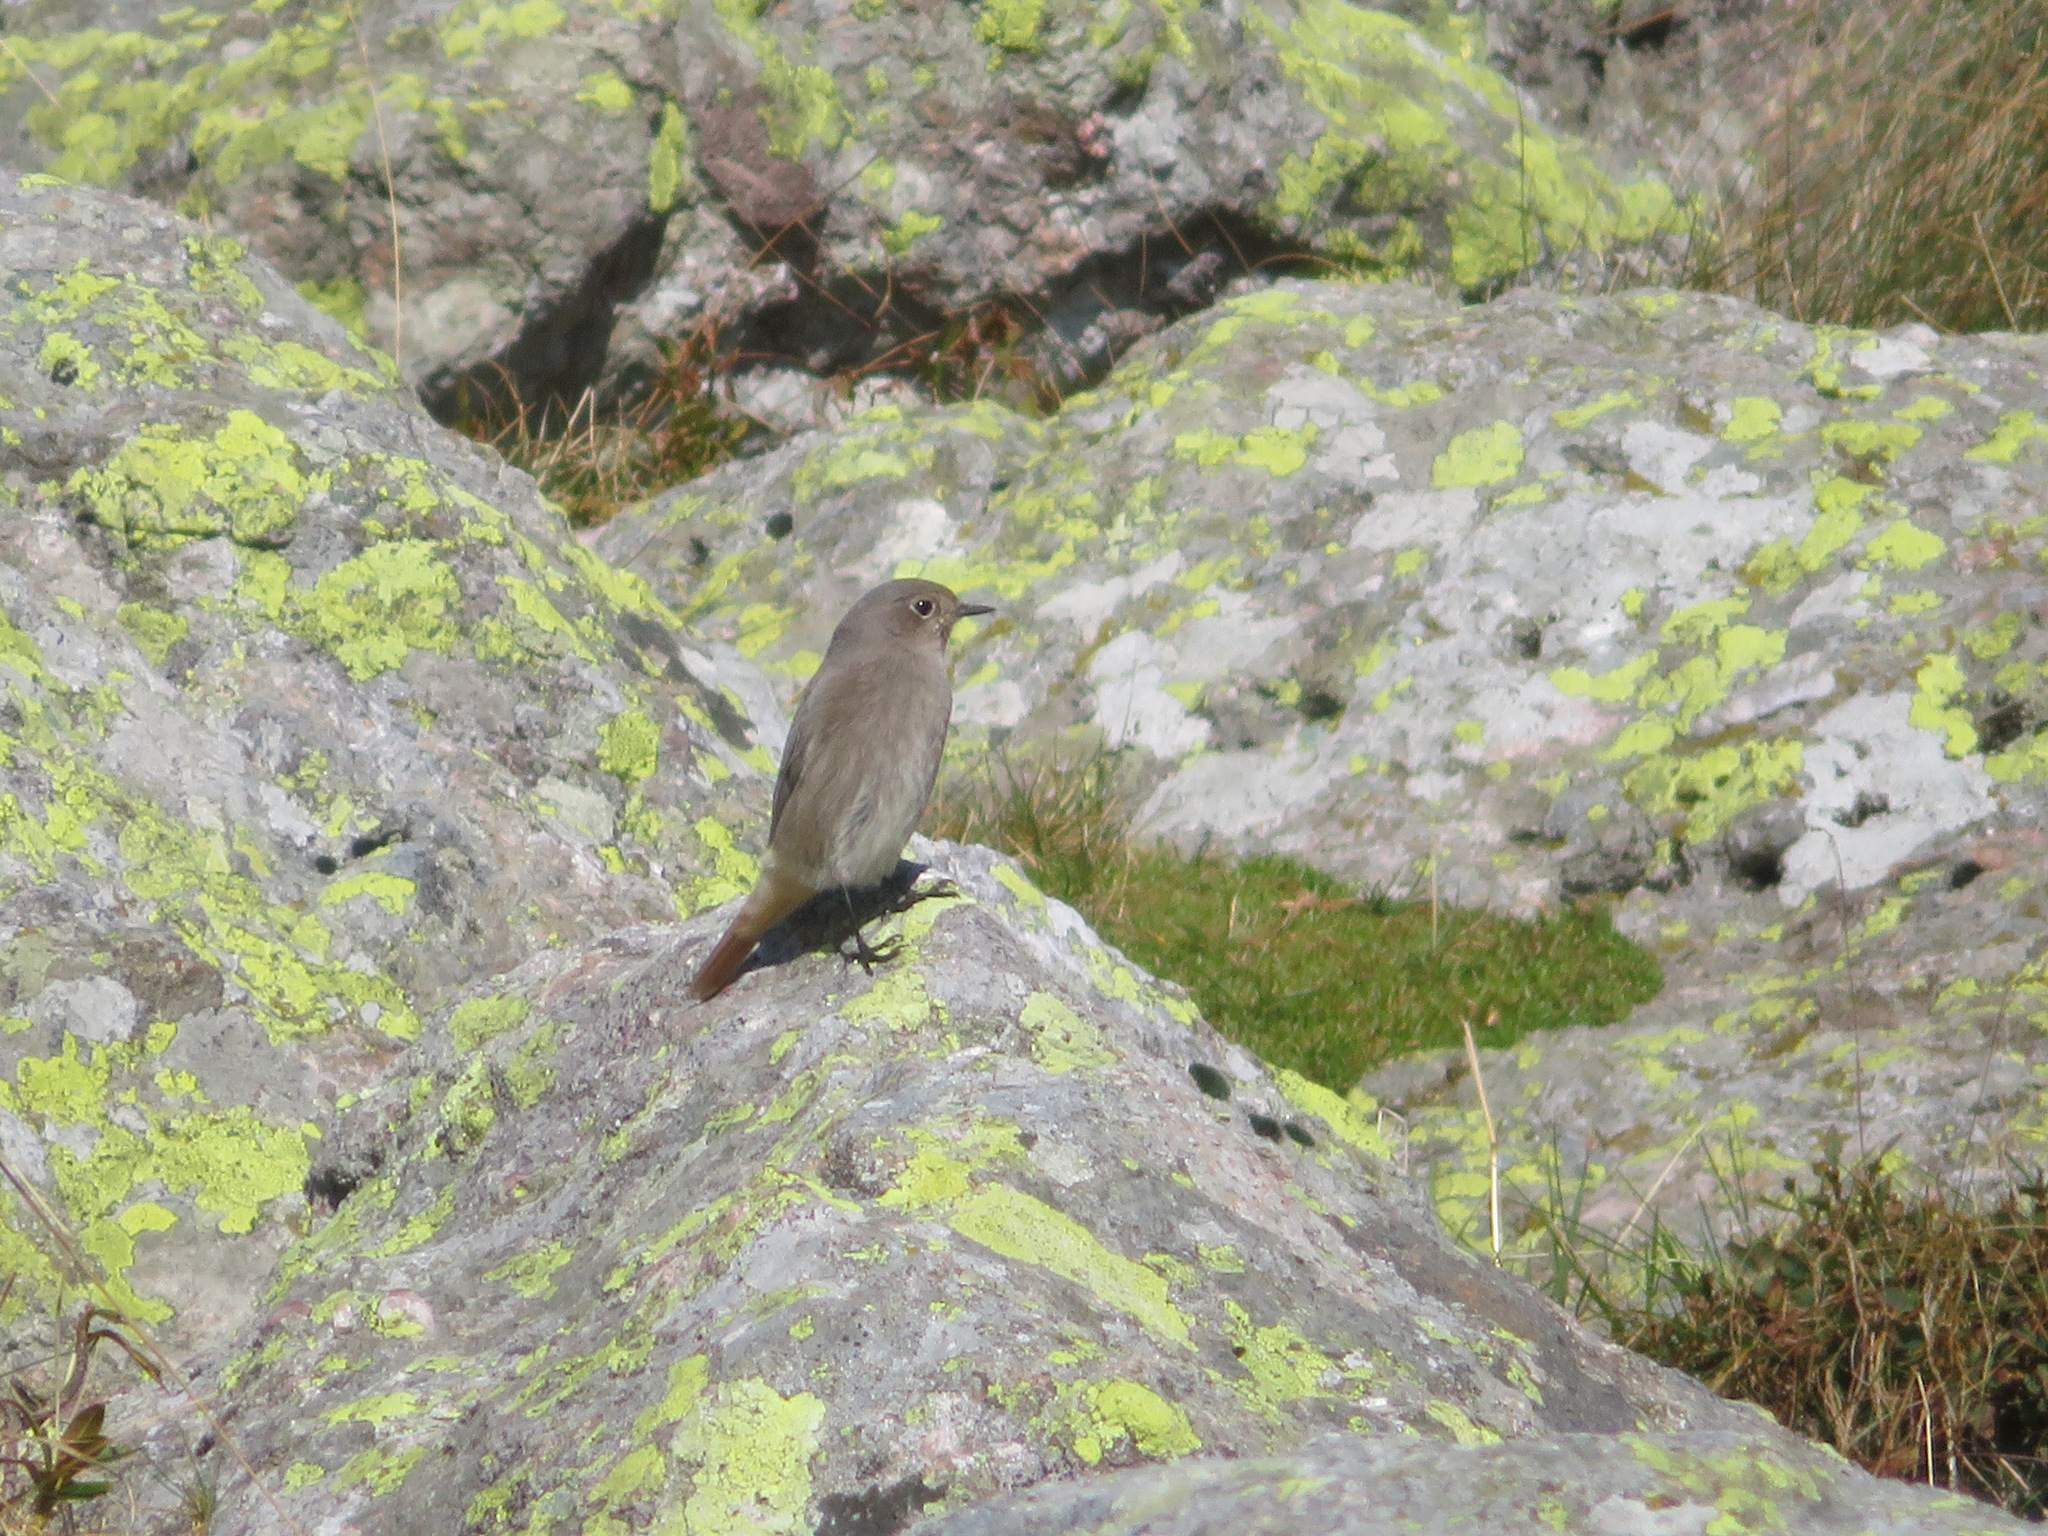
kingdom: Animalia
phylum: Chordata
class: Aves
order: Passeriformes
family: Muscicapidae
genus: Phoenicurus
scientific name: Phoenicurus ochruros
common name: Black redstart
